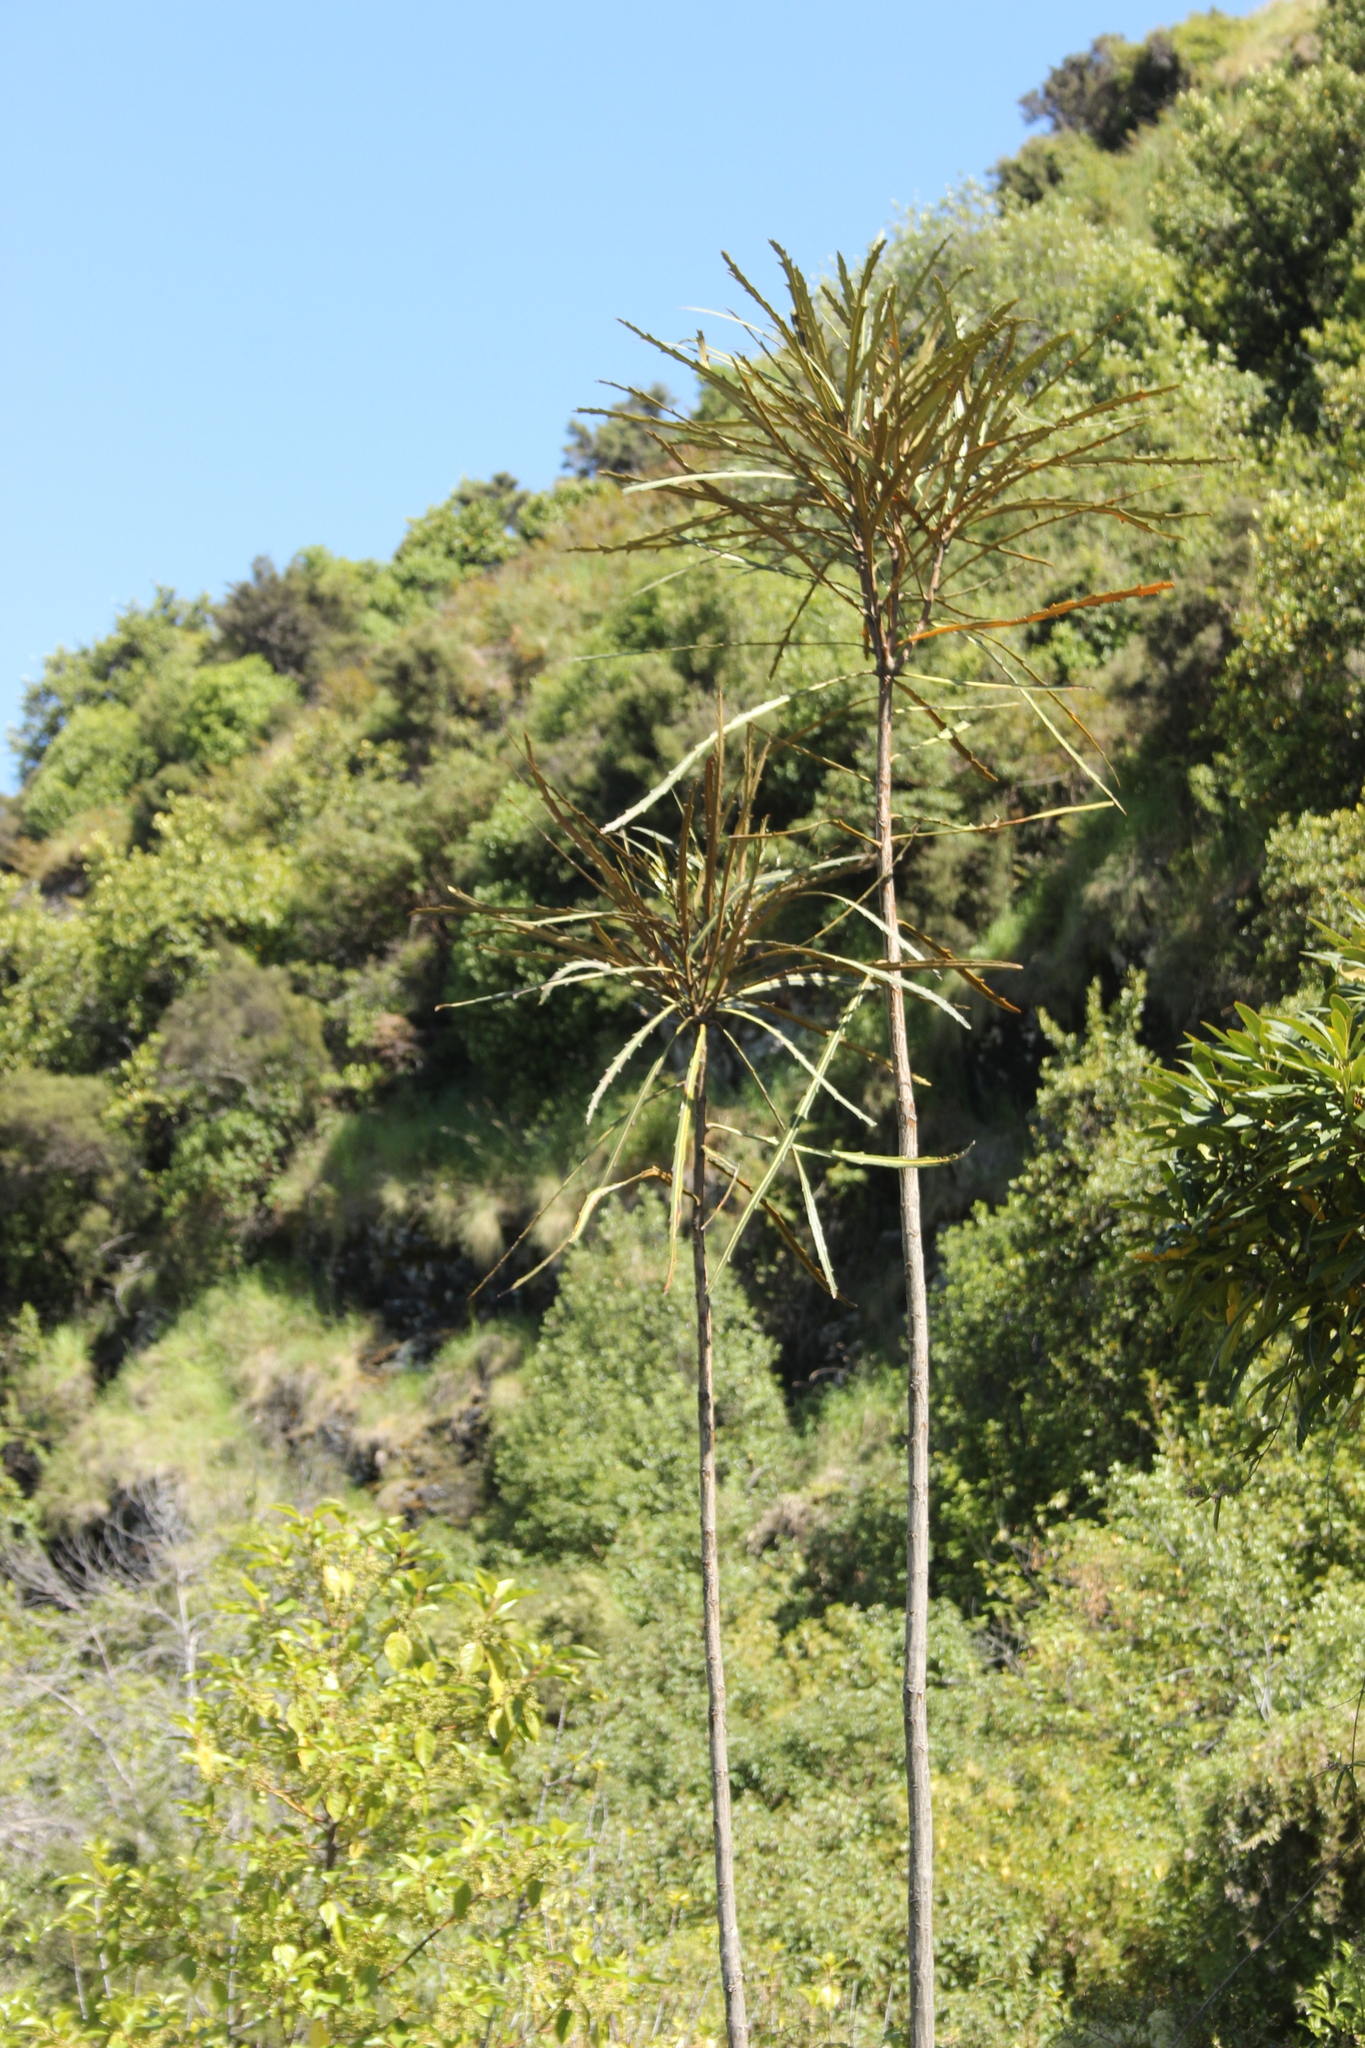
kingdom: Plantae
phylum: Tracheophyta
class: Magnoliopsida
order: Apiales
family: Araliaceae
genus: Pseudopanax
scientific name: Pseudopanax crassifolius
